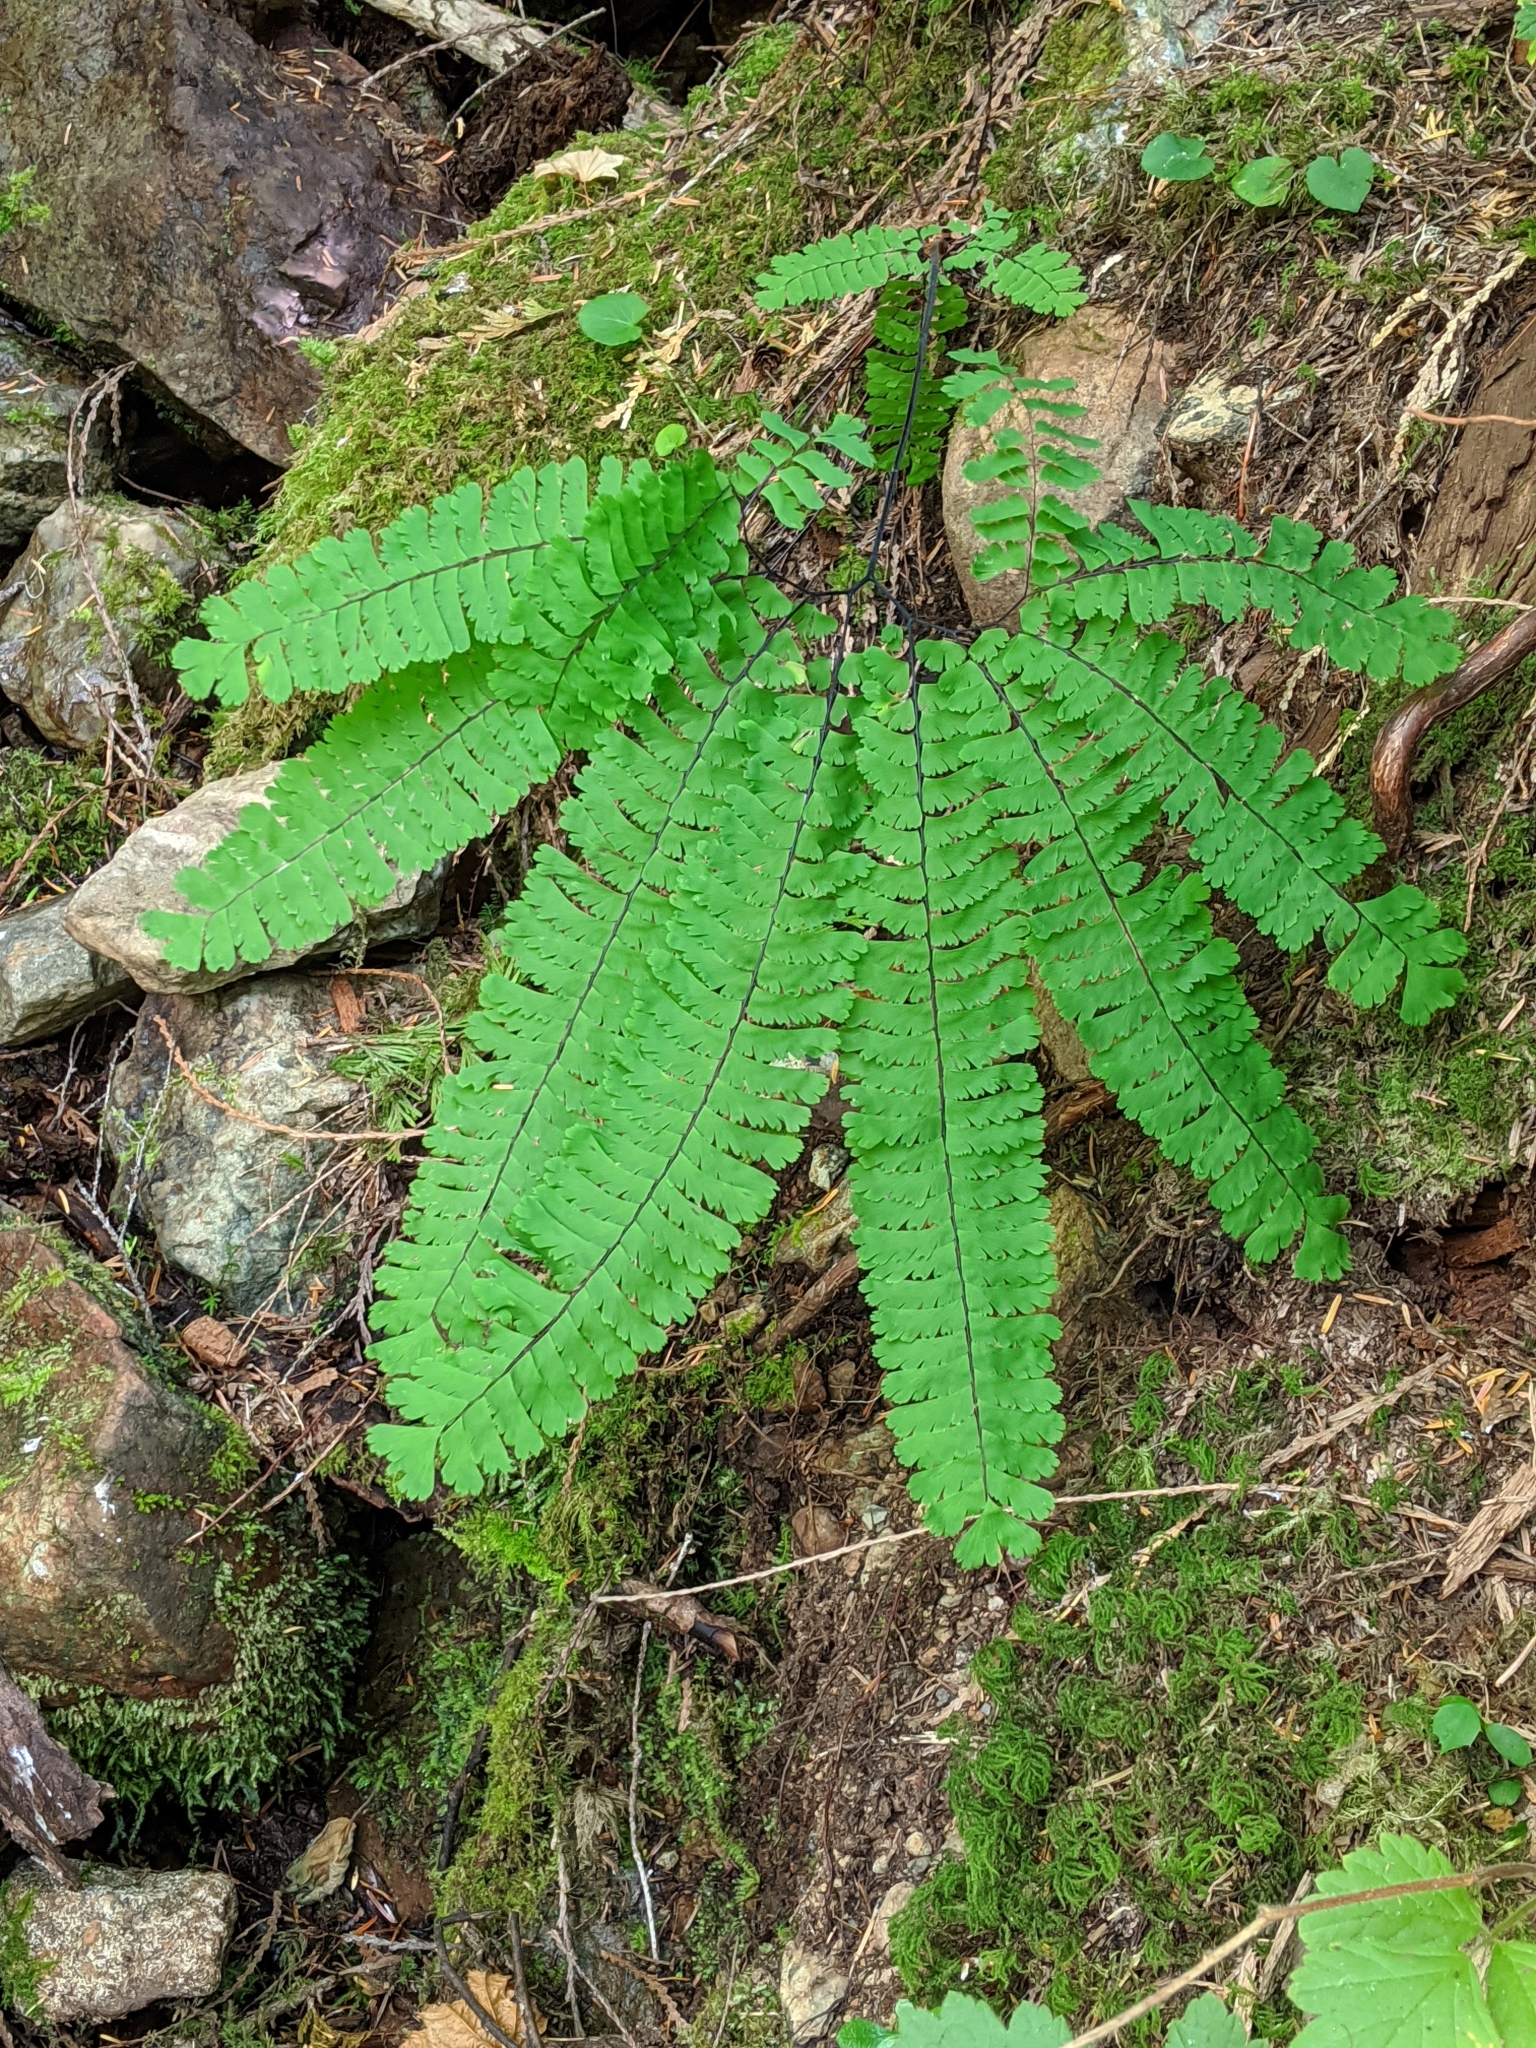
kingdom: Plantae
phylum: Tracheophyta
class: Polypodiopsida
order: Polypodiales
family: Pteridaceae
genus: Adiantum
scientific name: Adiantum aleuticum
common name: Aleutian maidenhair fern
